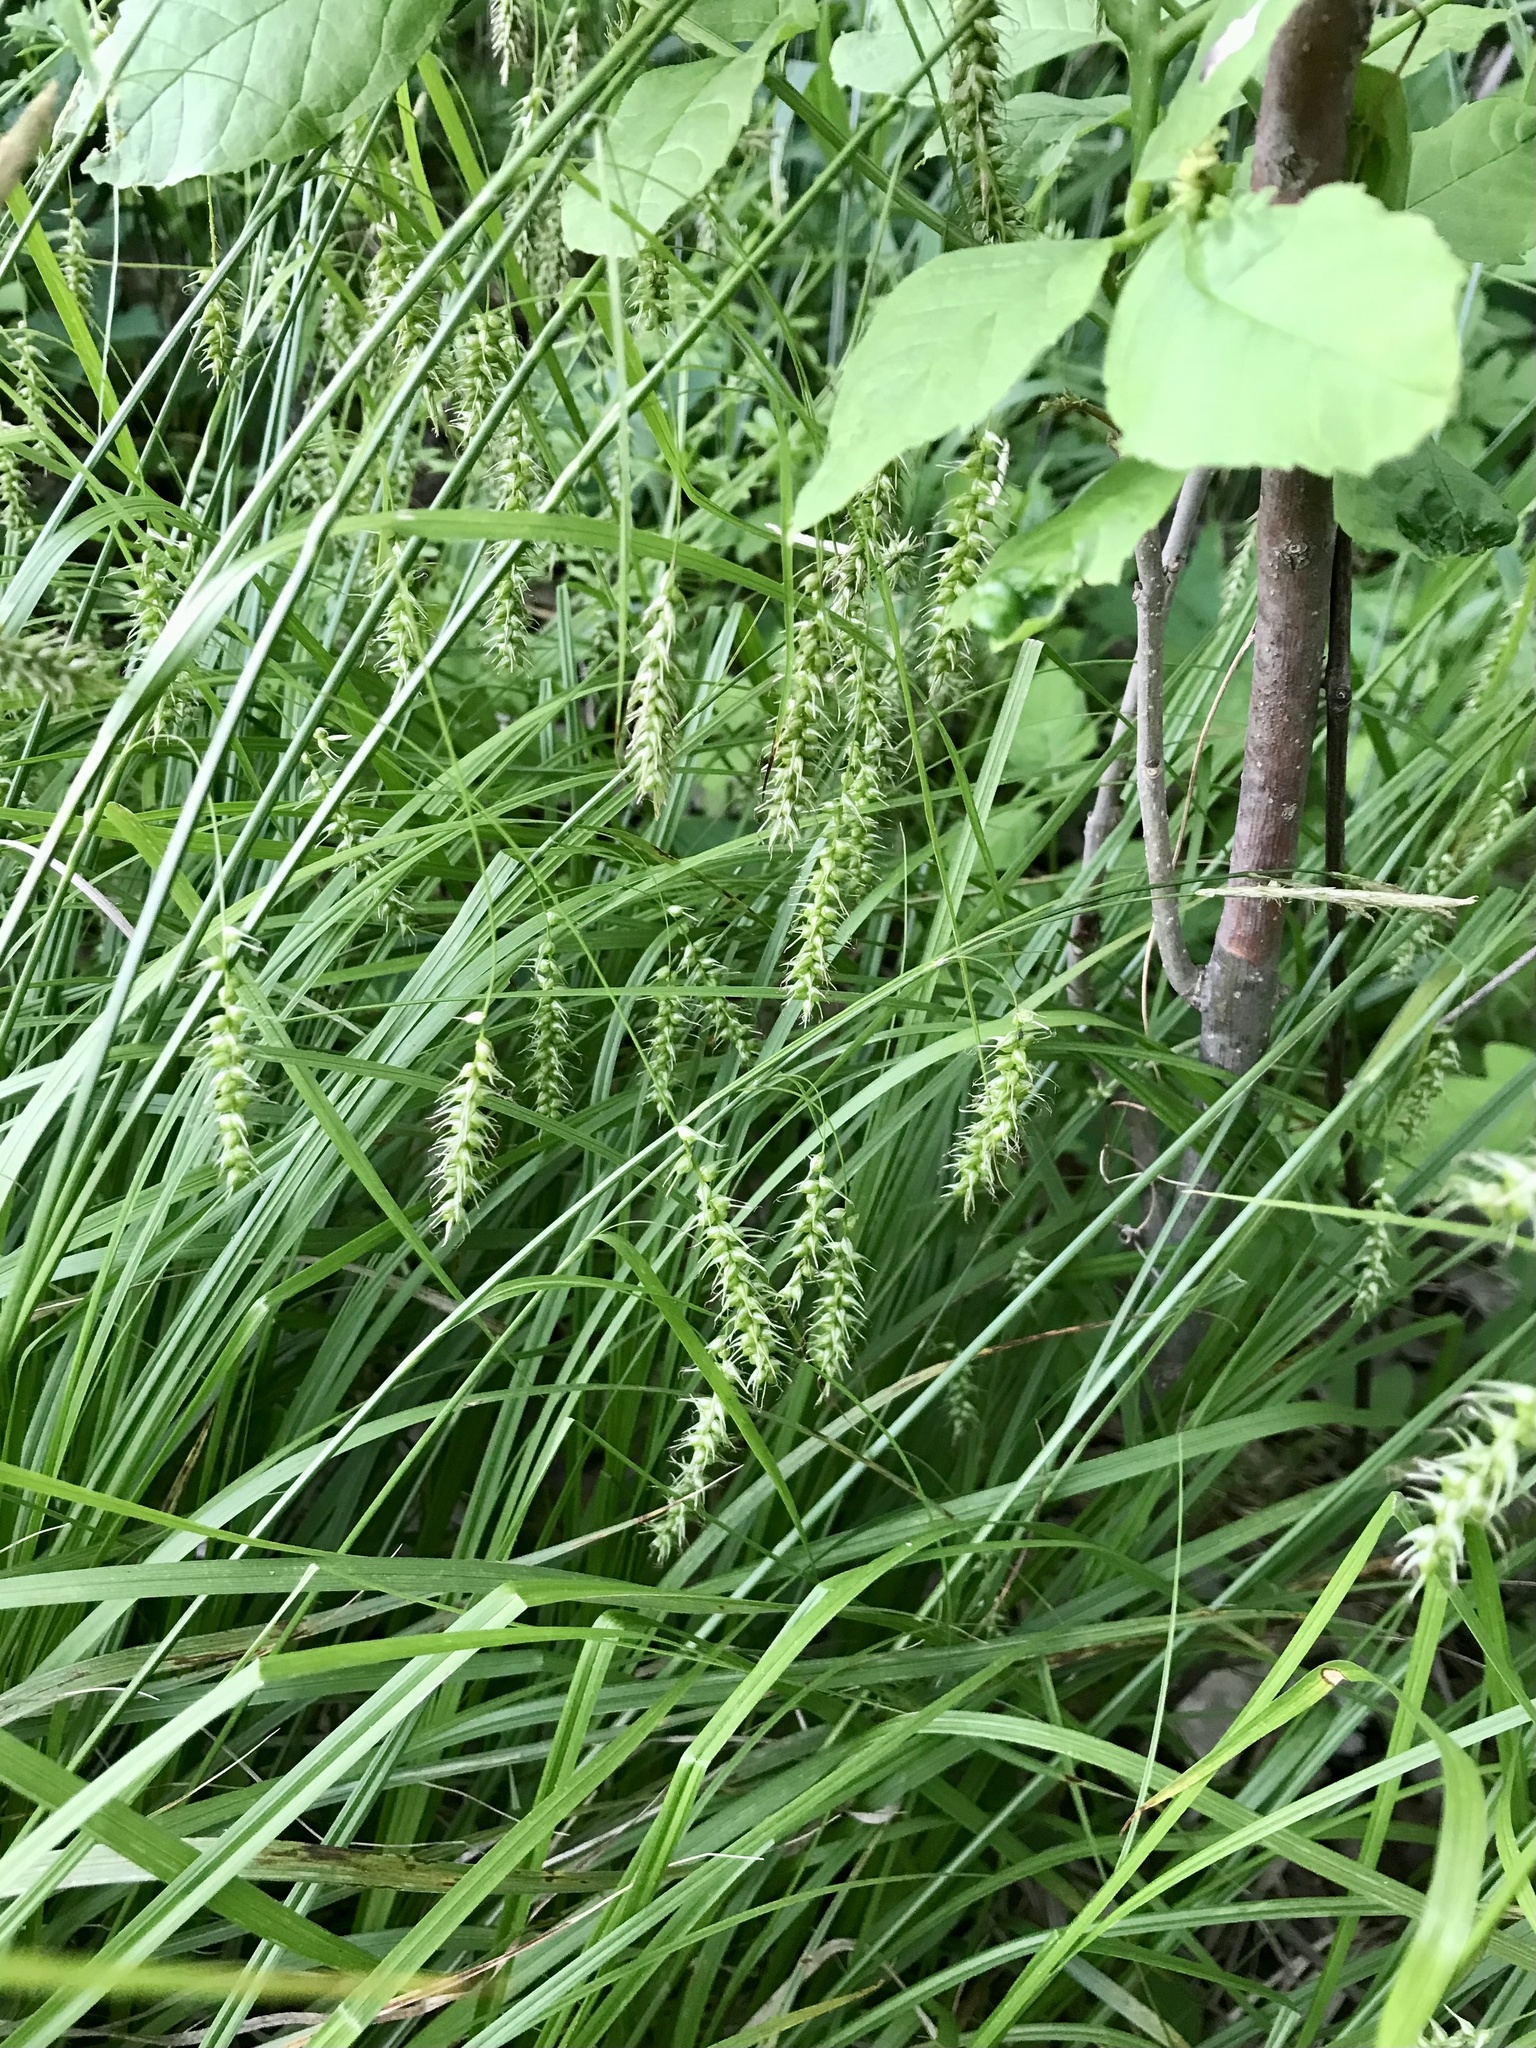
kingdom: Plantae
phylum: Tracheophyta
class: Liliopsida
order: Poales
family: Cyperaceae
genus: Carex
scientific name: Carex sprengelii
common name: Long-beaked sedge
